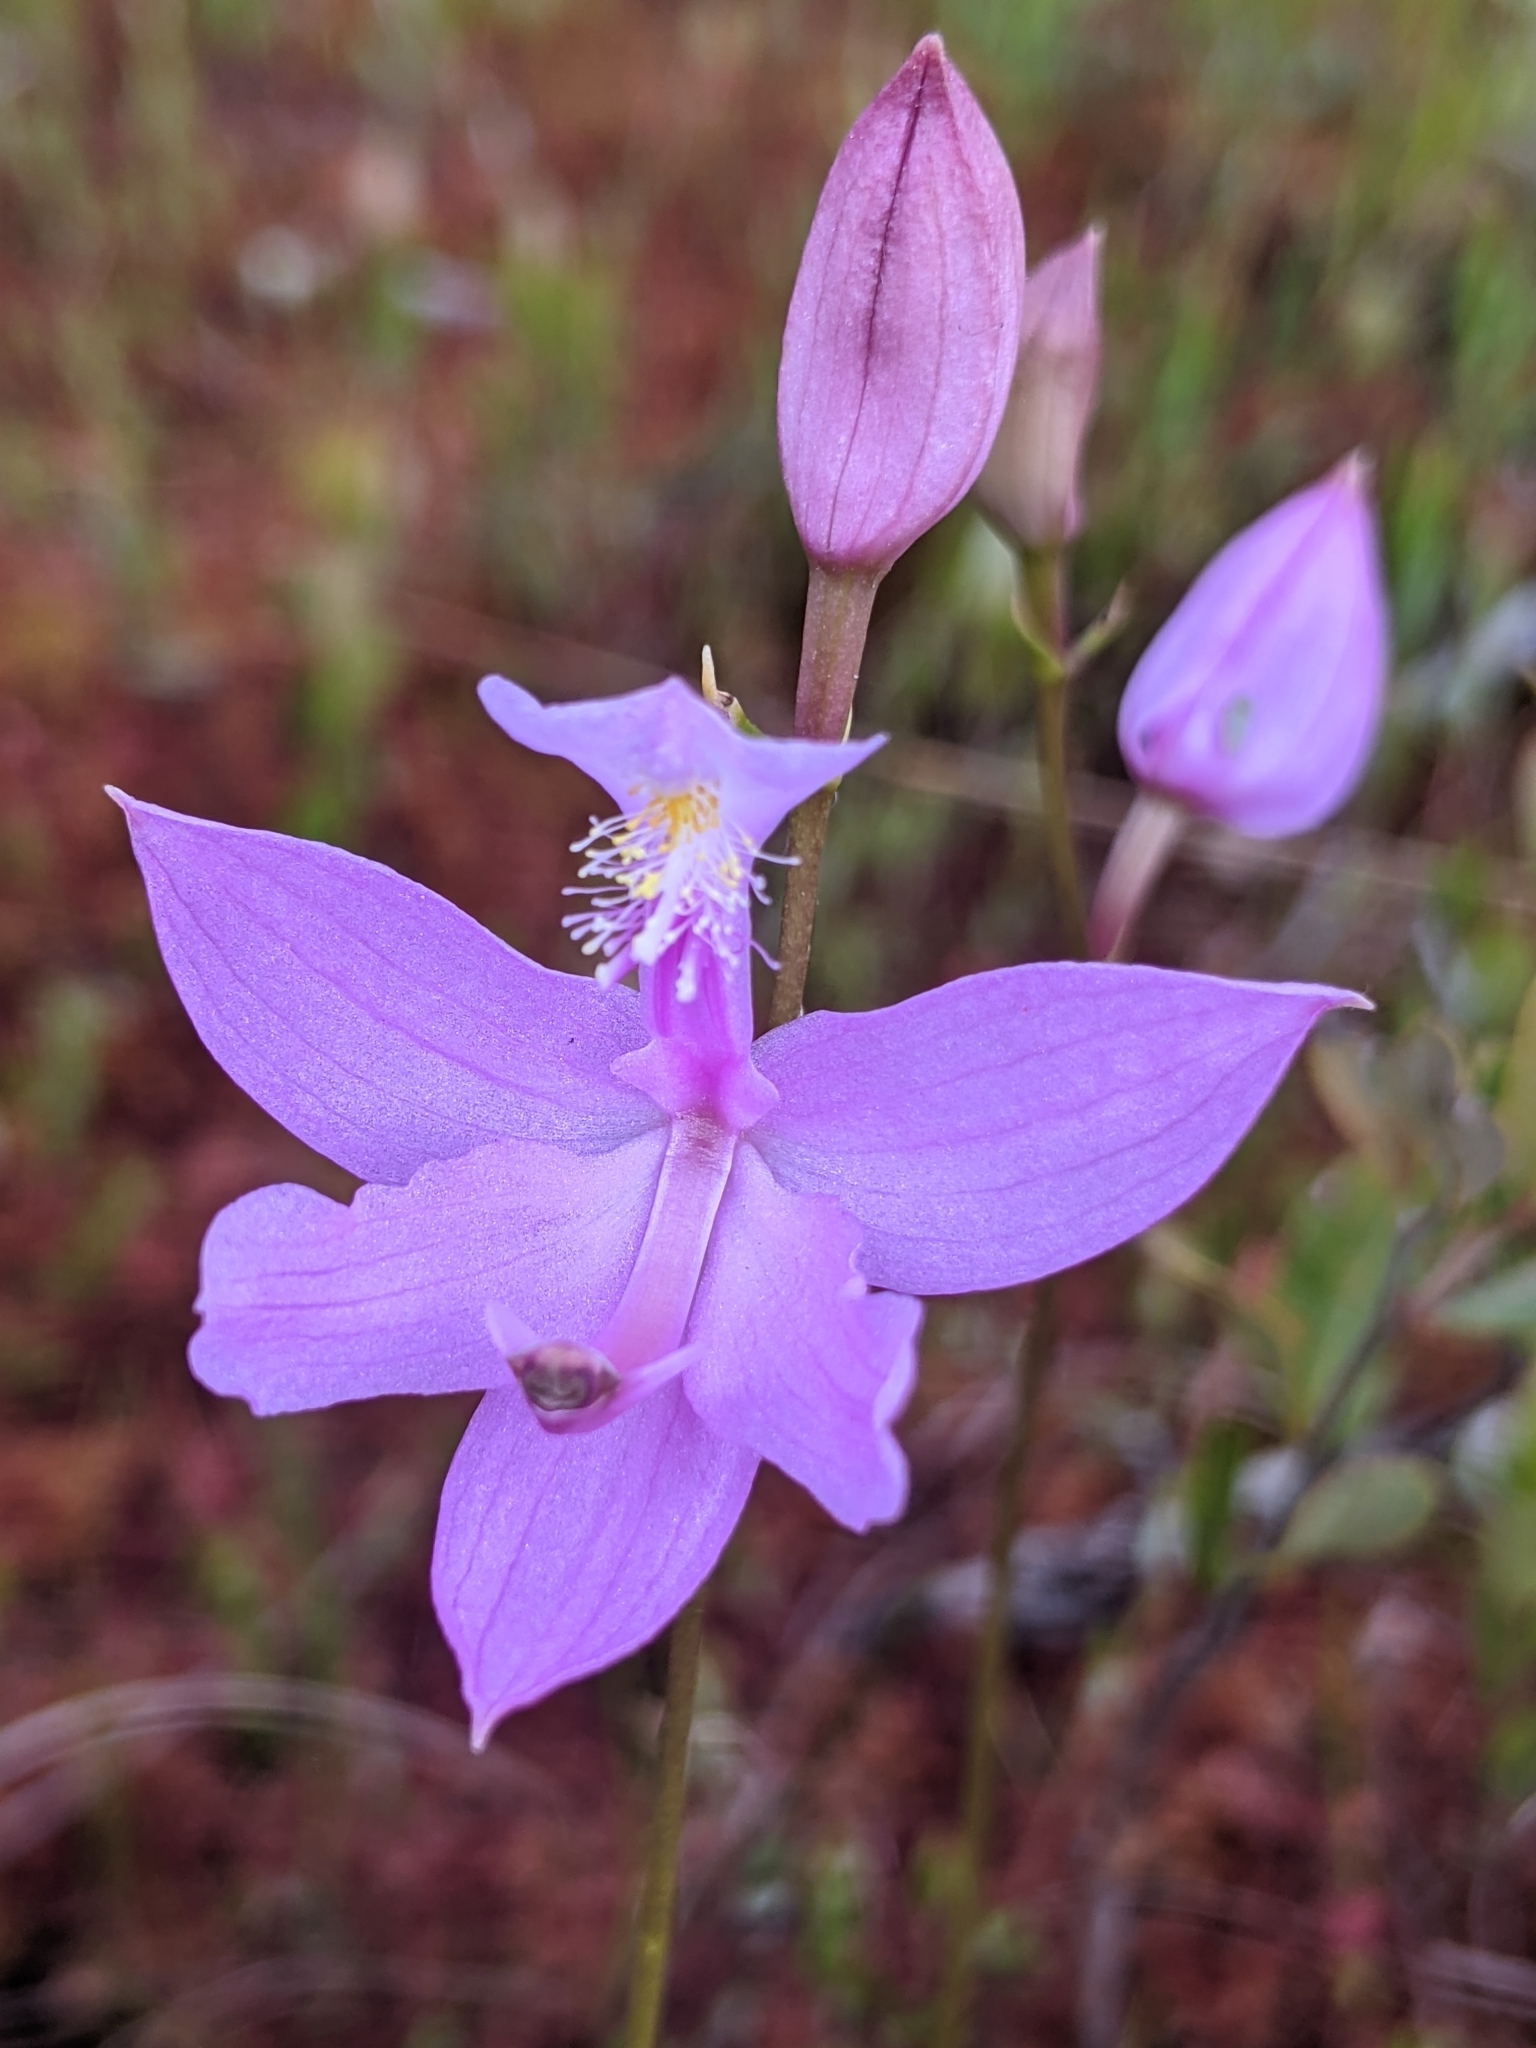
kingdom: Plantae
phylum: Tracheophyta
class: Liliopsida
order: Asparagales
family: Orchidaceae
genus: Calopogon
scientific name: Calopogon tuberosus
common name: Grass-pink
